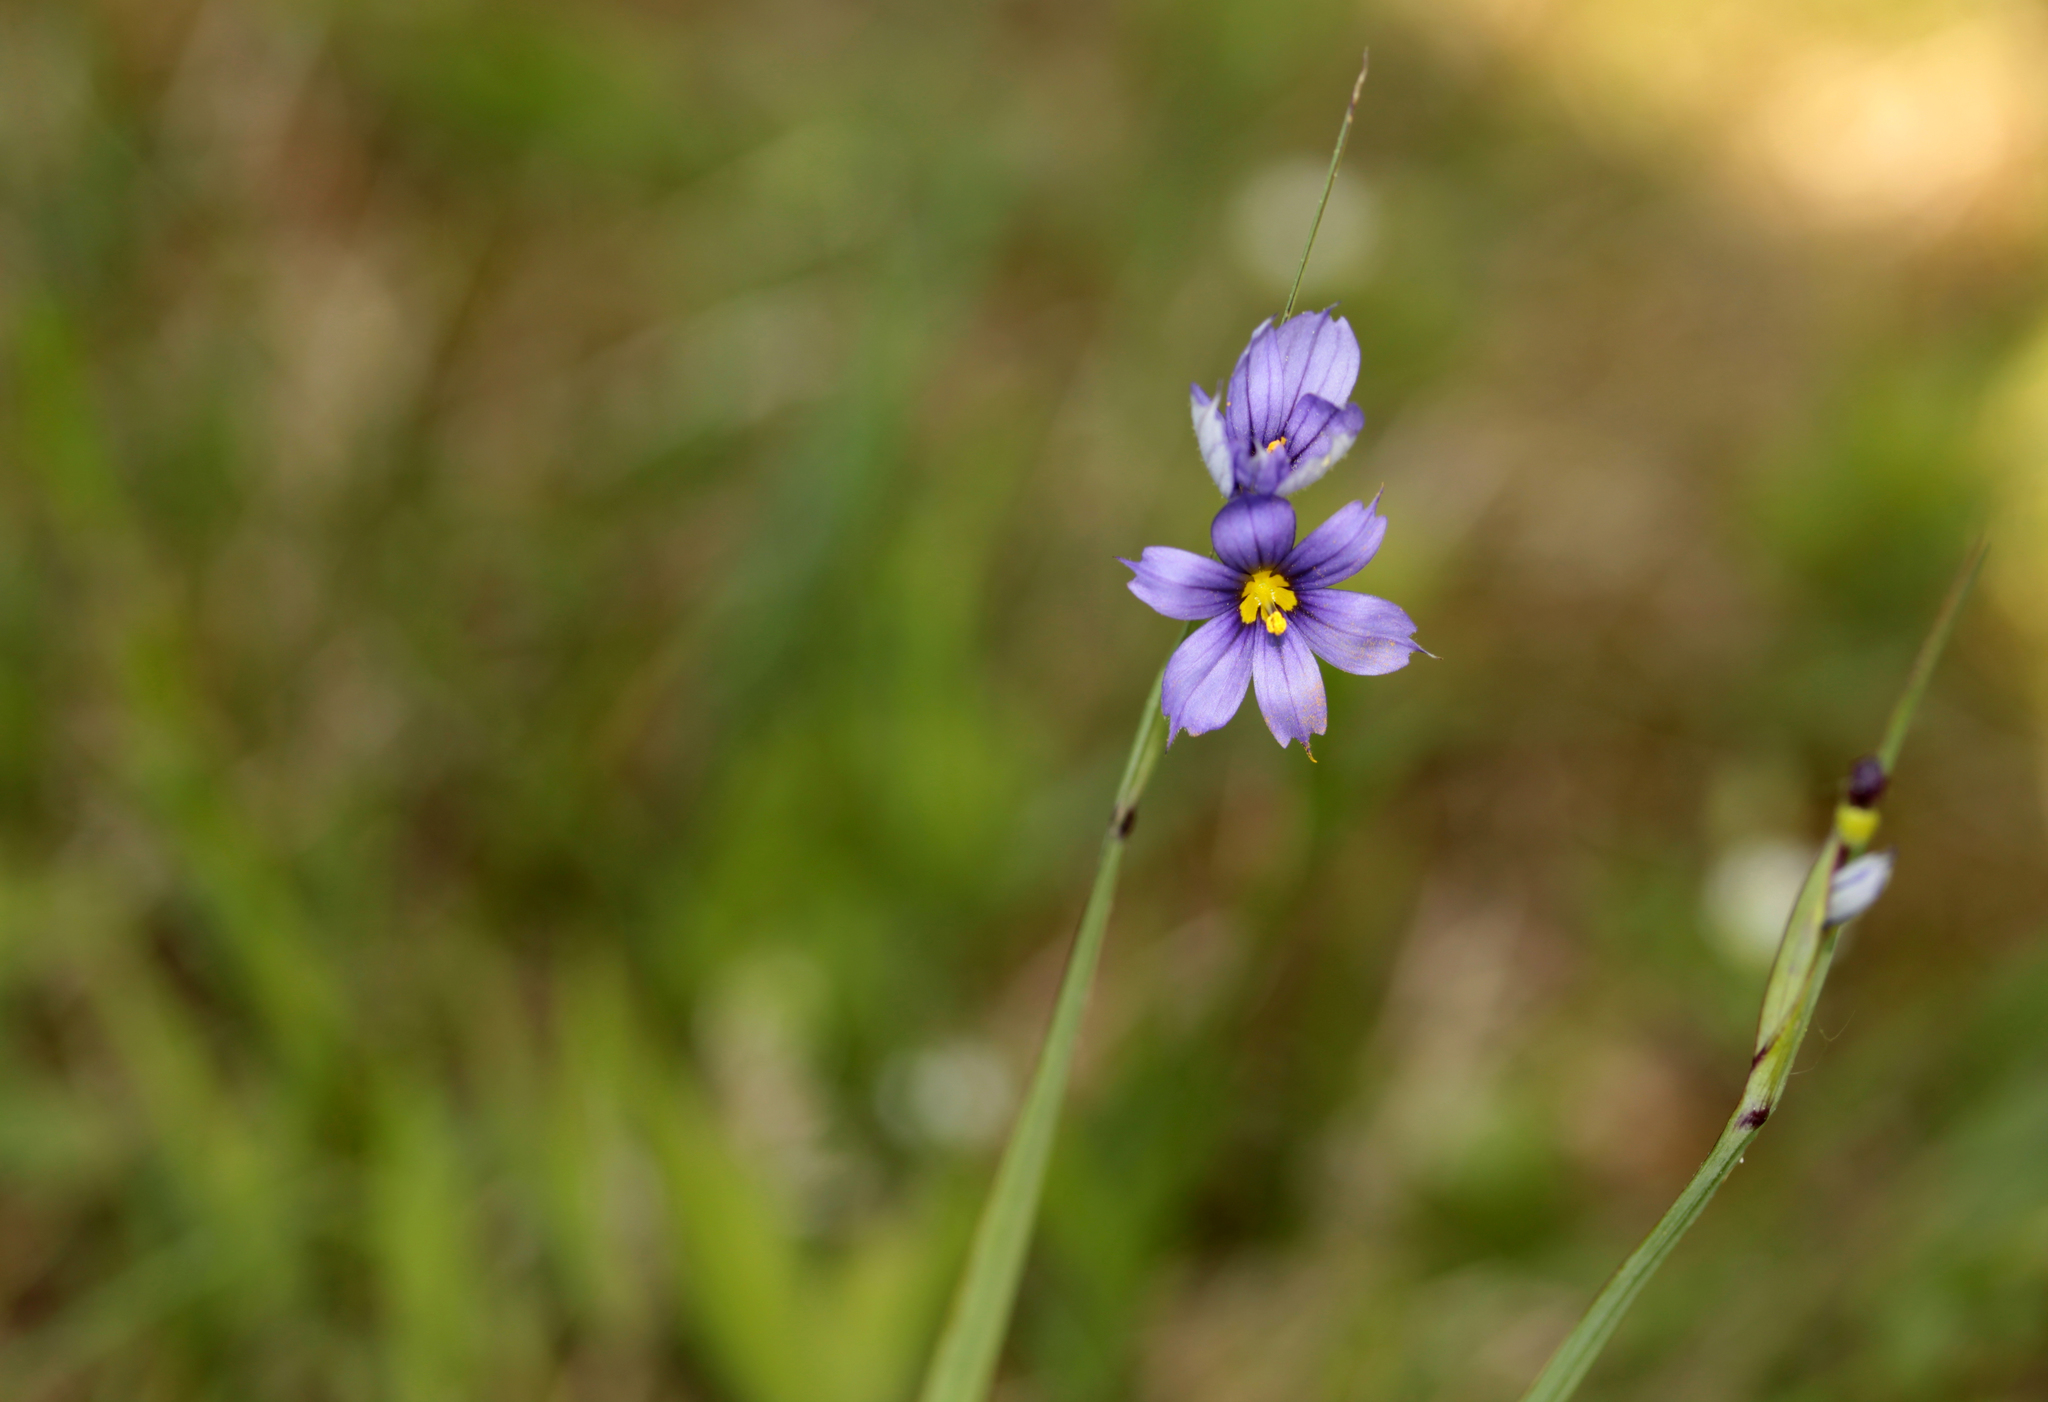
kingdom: Plantae
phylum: Tracheophyta
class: Liliopsida
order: Asparagales
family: Iridaceae
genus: Sisyrinchium
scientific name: Sisyrinchium montanum
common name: American blue-eyed-grass
